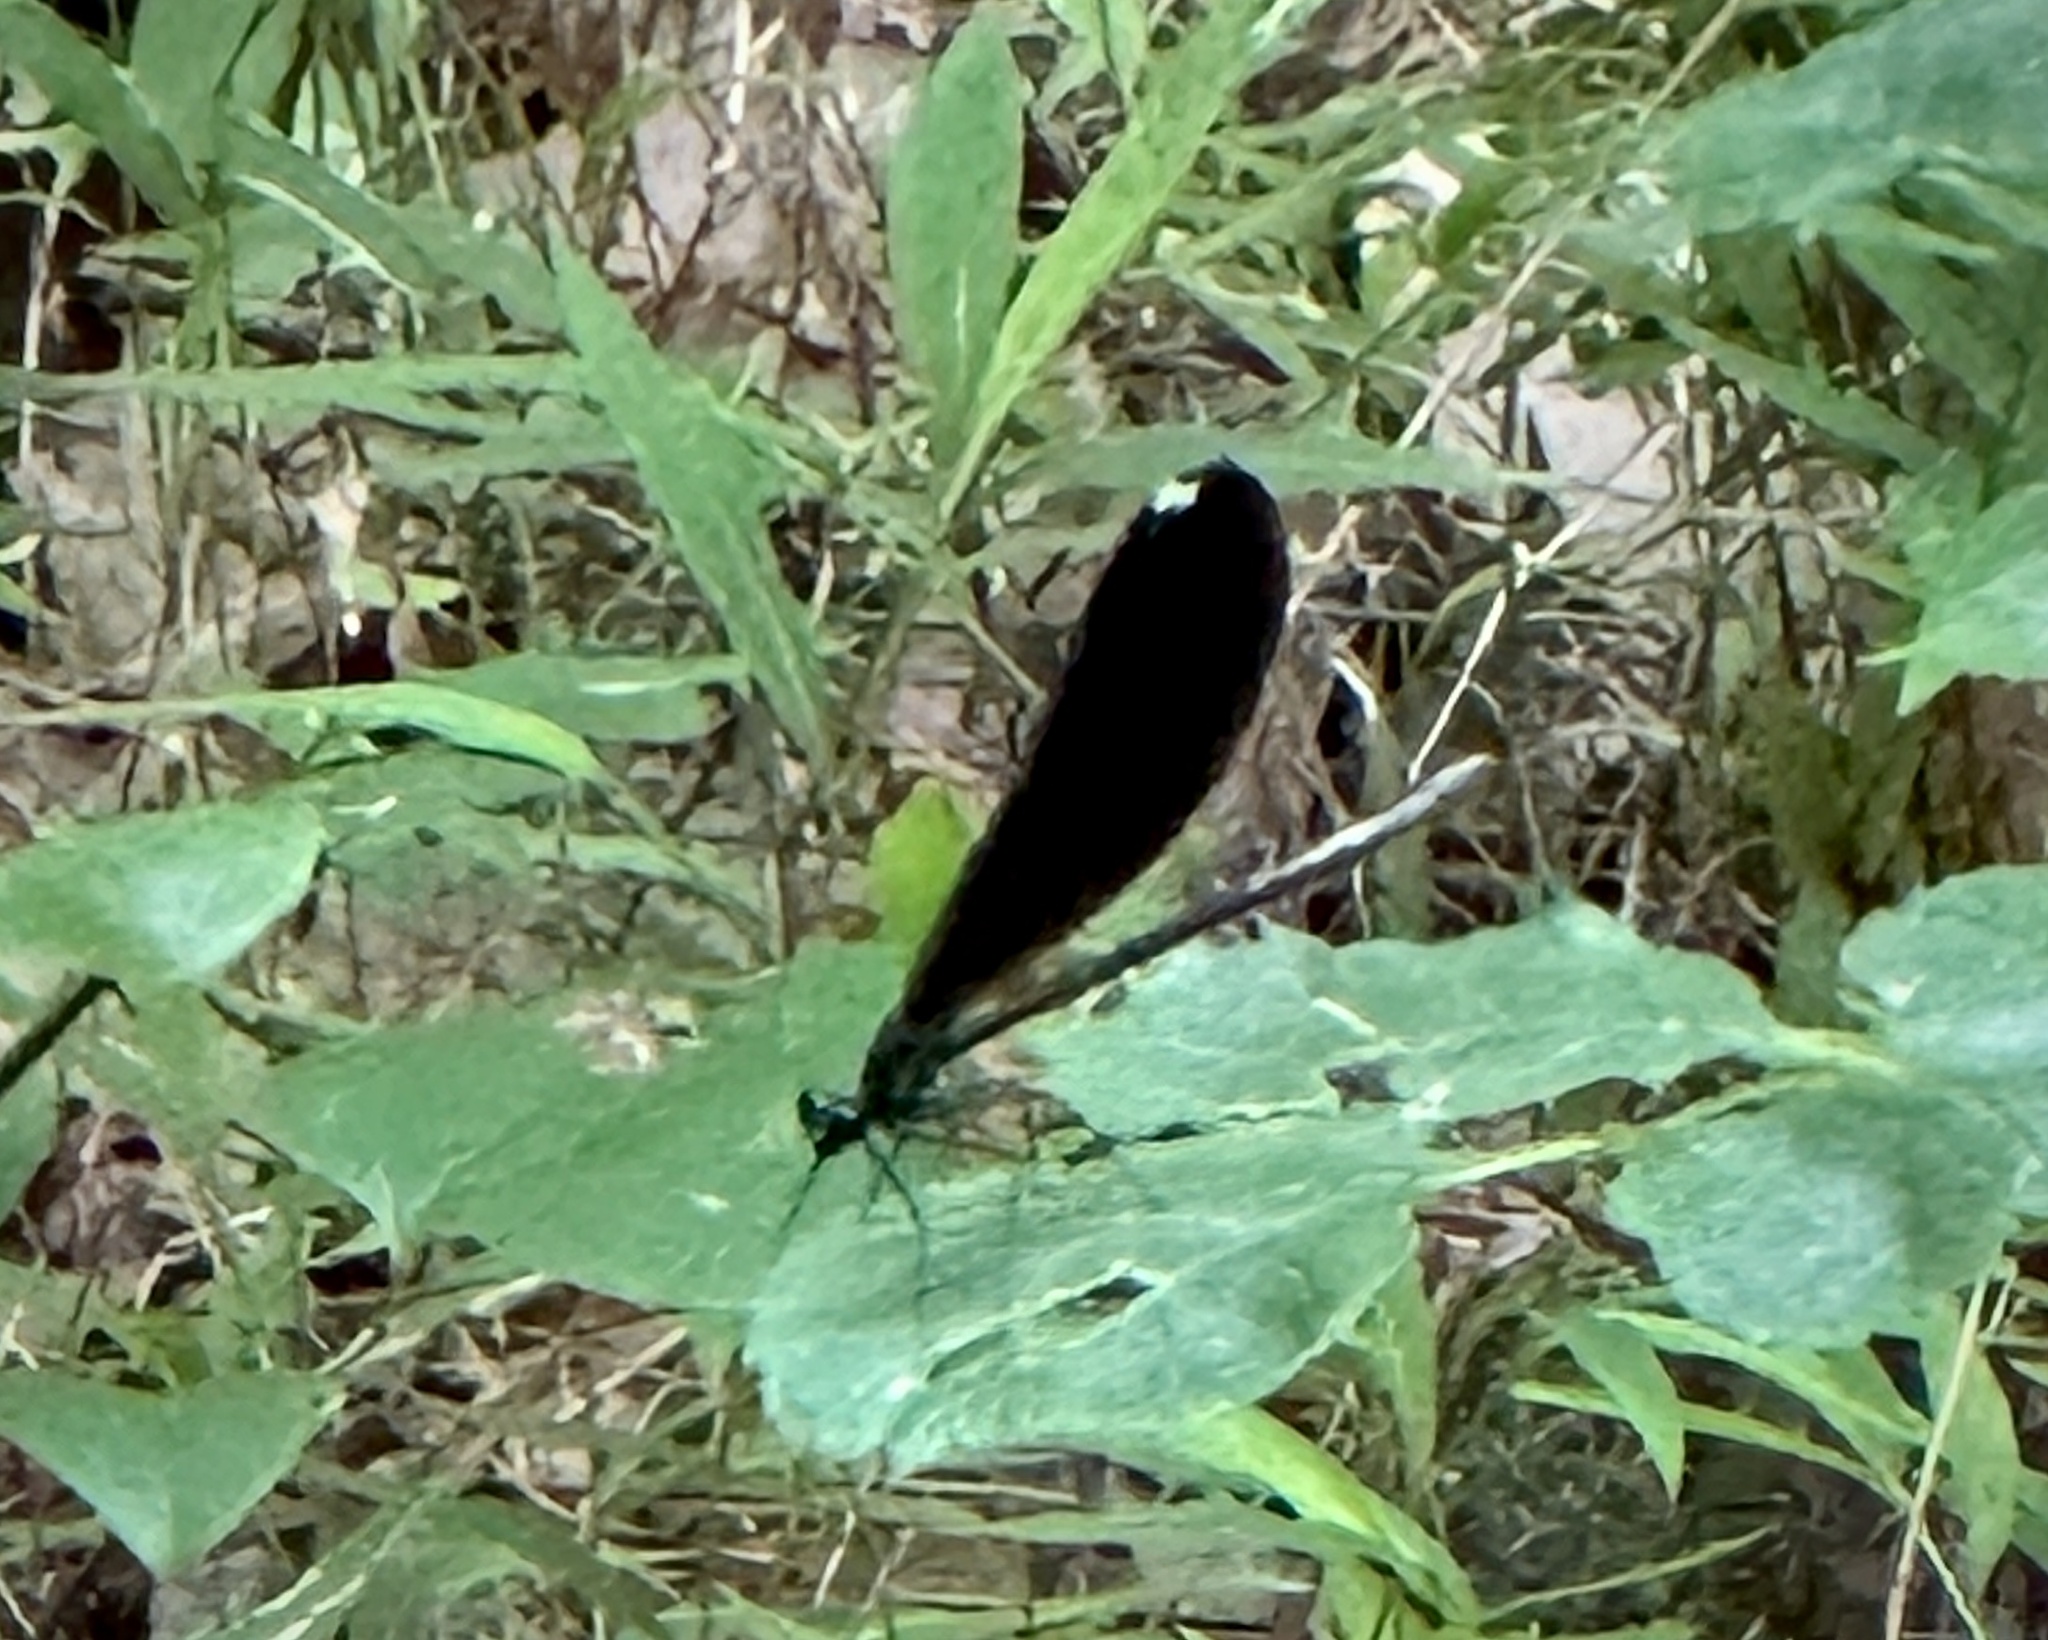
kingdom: Animalia
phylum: Arthropoda
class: Insecta
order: Odonata
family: Calopterygidae
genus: Calopteryx
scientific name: Calopteryx maculata
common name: Ebony jewelwing
